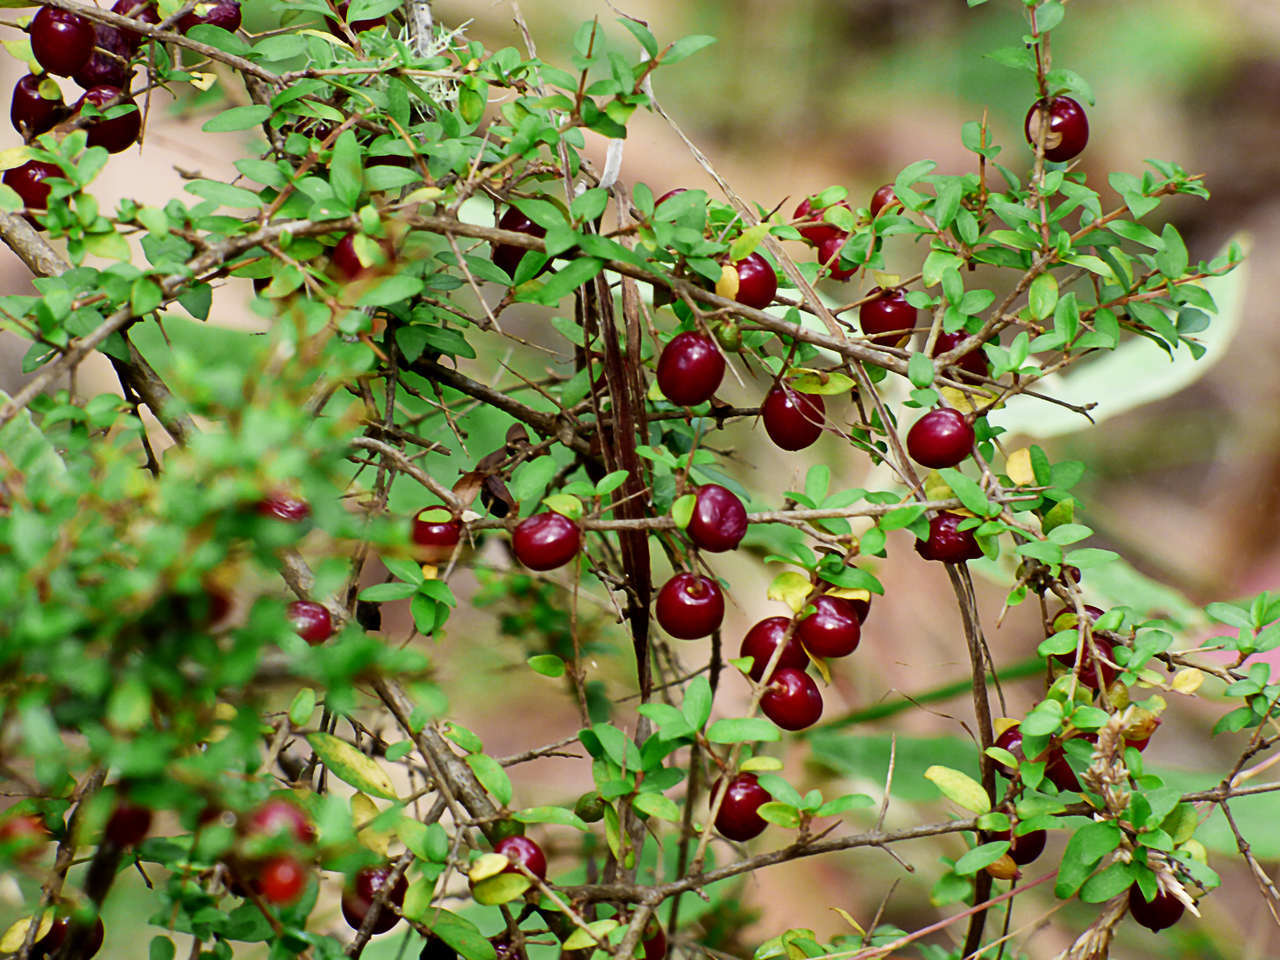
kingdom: Plantae
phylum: Tracheophyta
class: Magnoliopsida
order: Gentianales
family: Rubiaceae
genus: Coprosma
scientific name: Coprosma quadrifida
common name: Prickly currantbush
